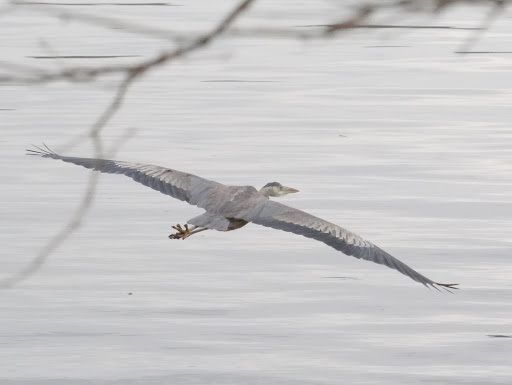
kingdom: Animalia
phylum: Chordata
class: Aves
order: Pelecaniformes
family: Ardeidae
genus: Ardea
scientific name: Ardea herodias
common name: Great blue heron
